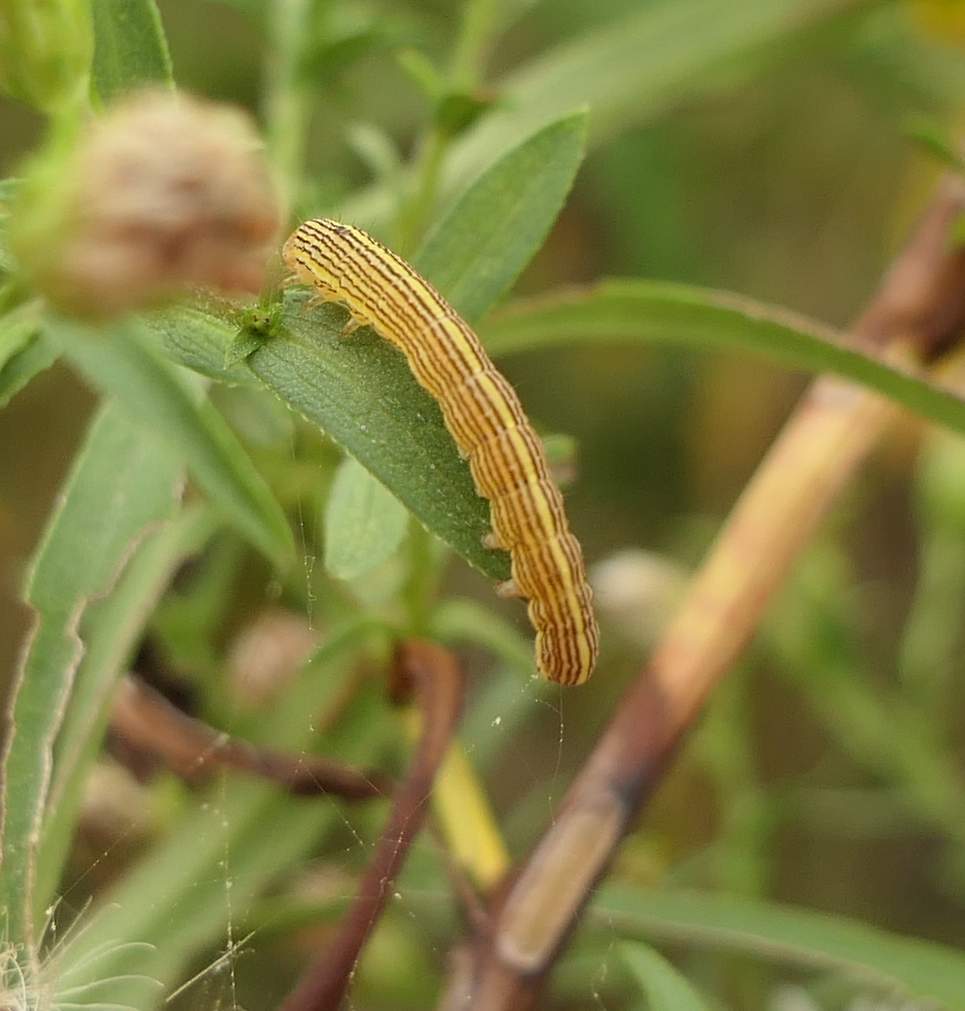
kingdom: Animalia
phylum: Arthropoda
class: Insecta
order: Lepidoptera
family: Noctuidae
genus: Cucullia
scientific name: Cucullia asteroides
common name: Asteroid moth
